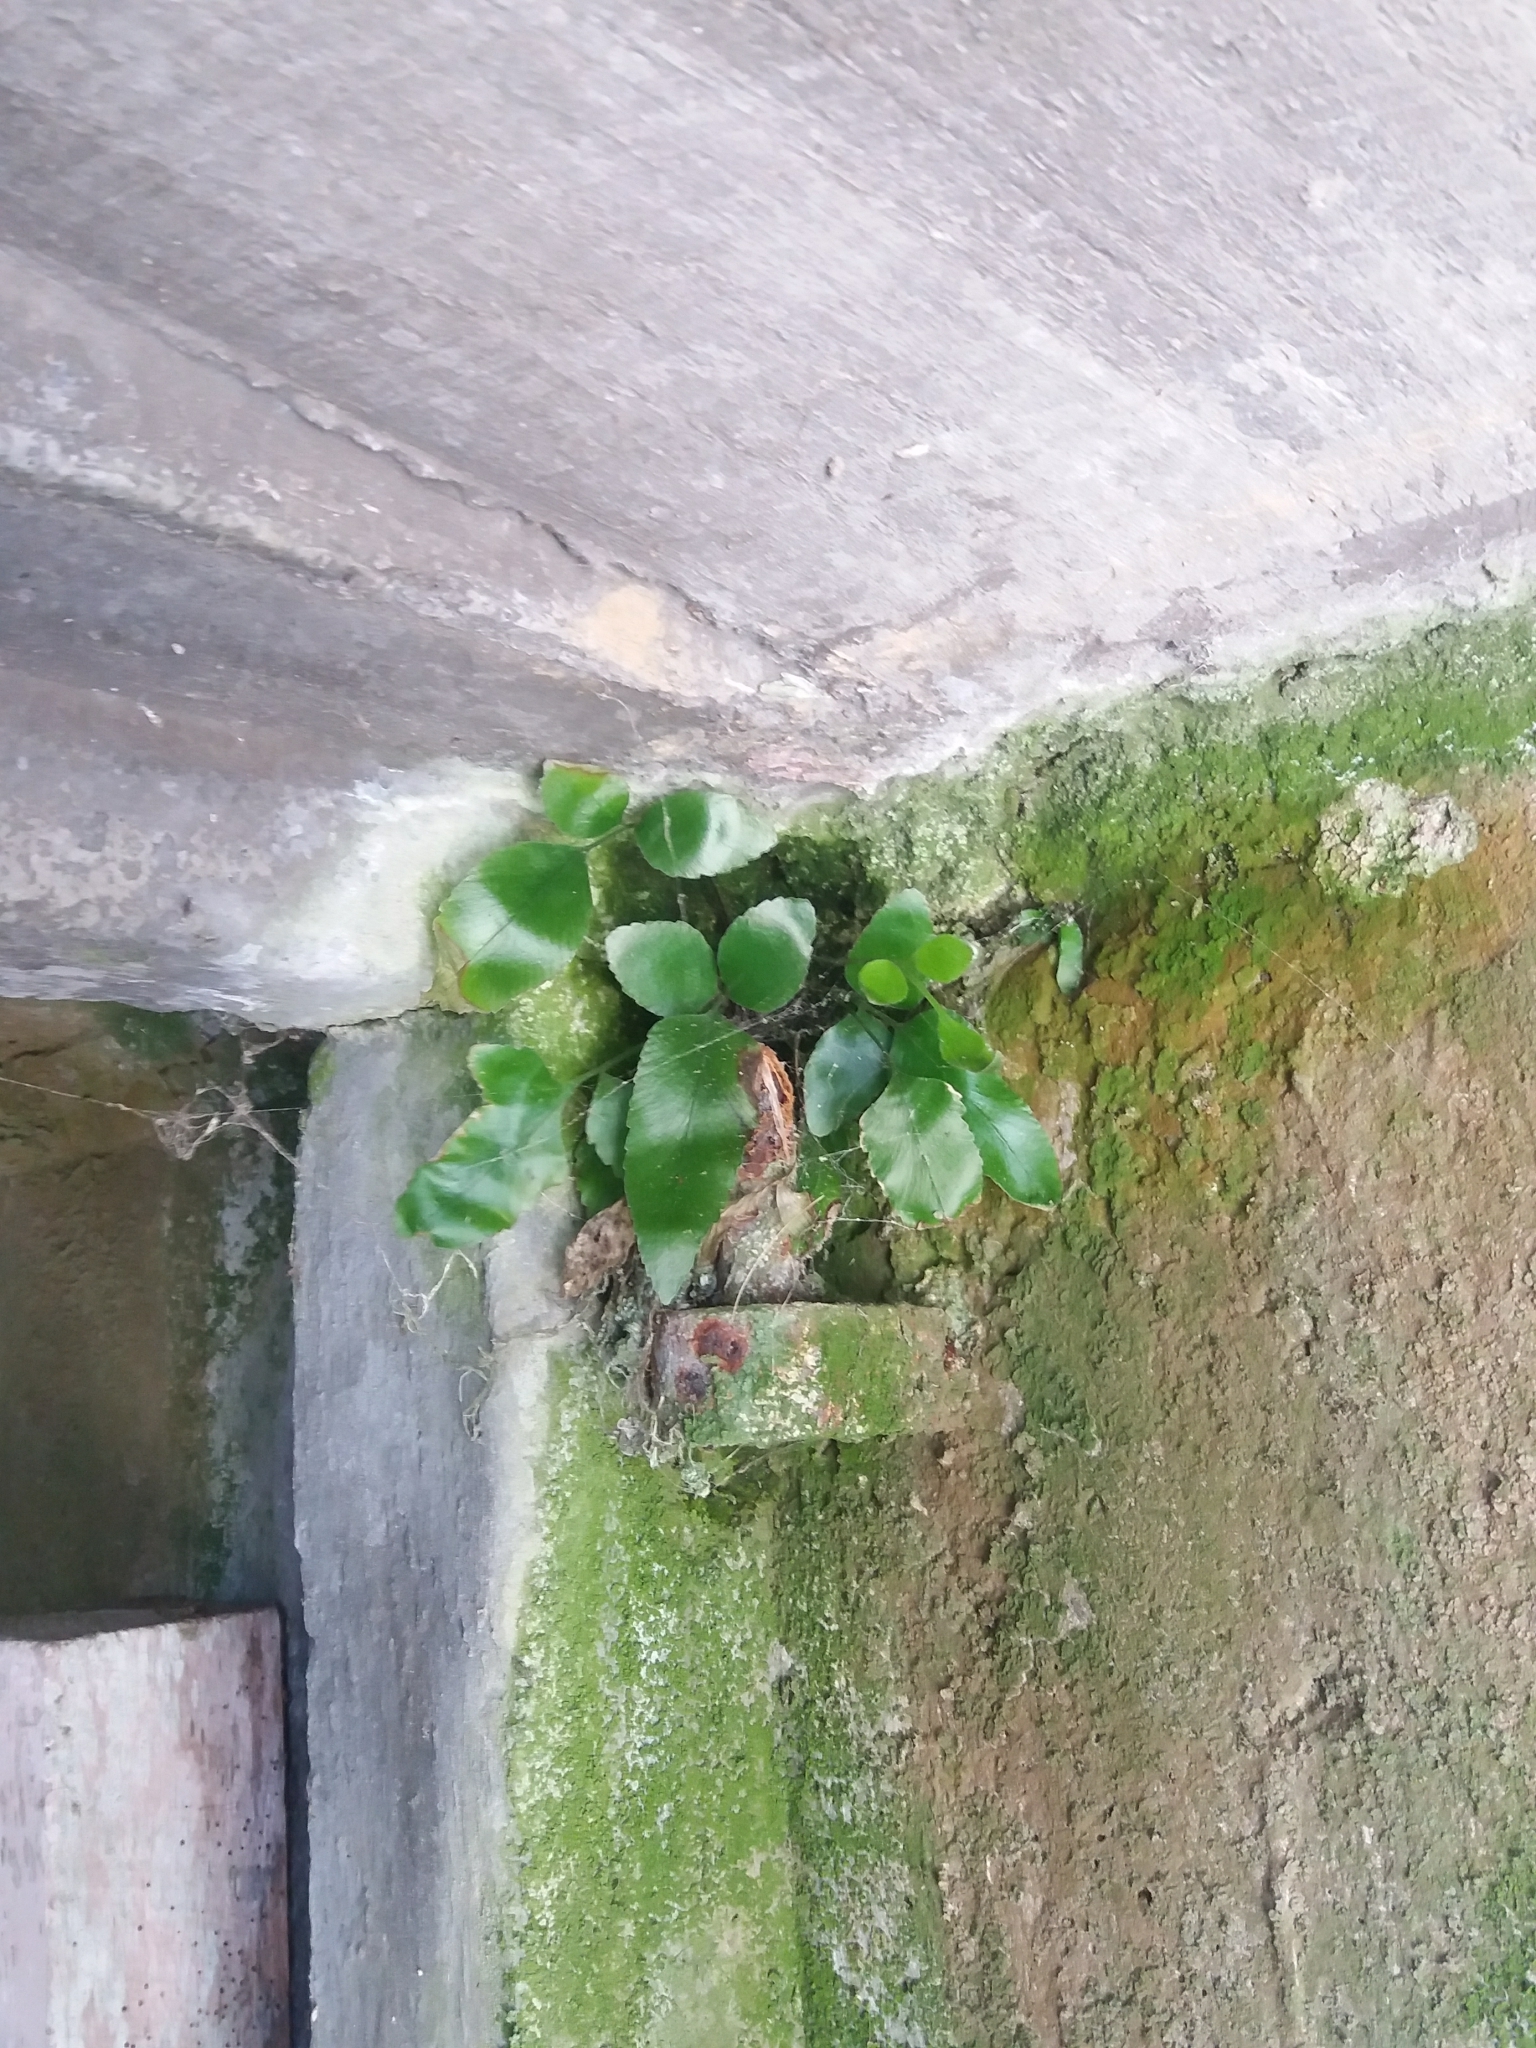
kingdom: Plantae
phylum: Tracheophyta
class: Polypodiopsida
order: Polypodiales
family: Aspleniaceae
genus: Asplenium
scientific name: Asplenium oblongifolium
